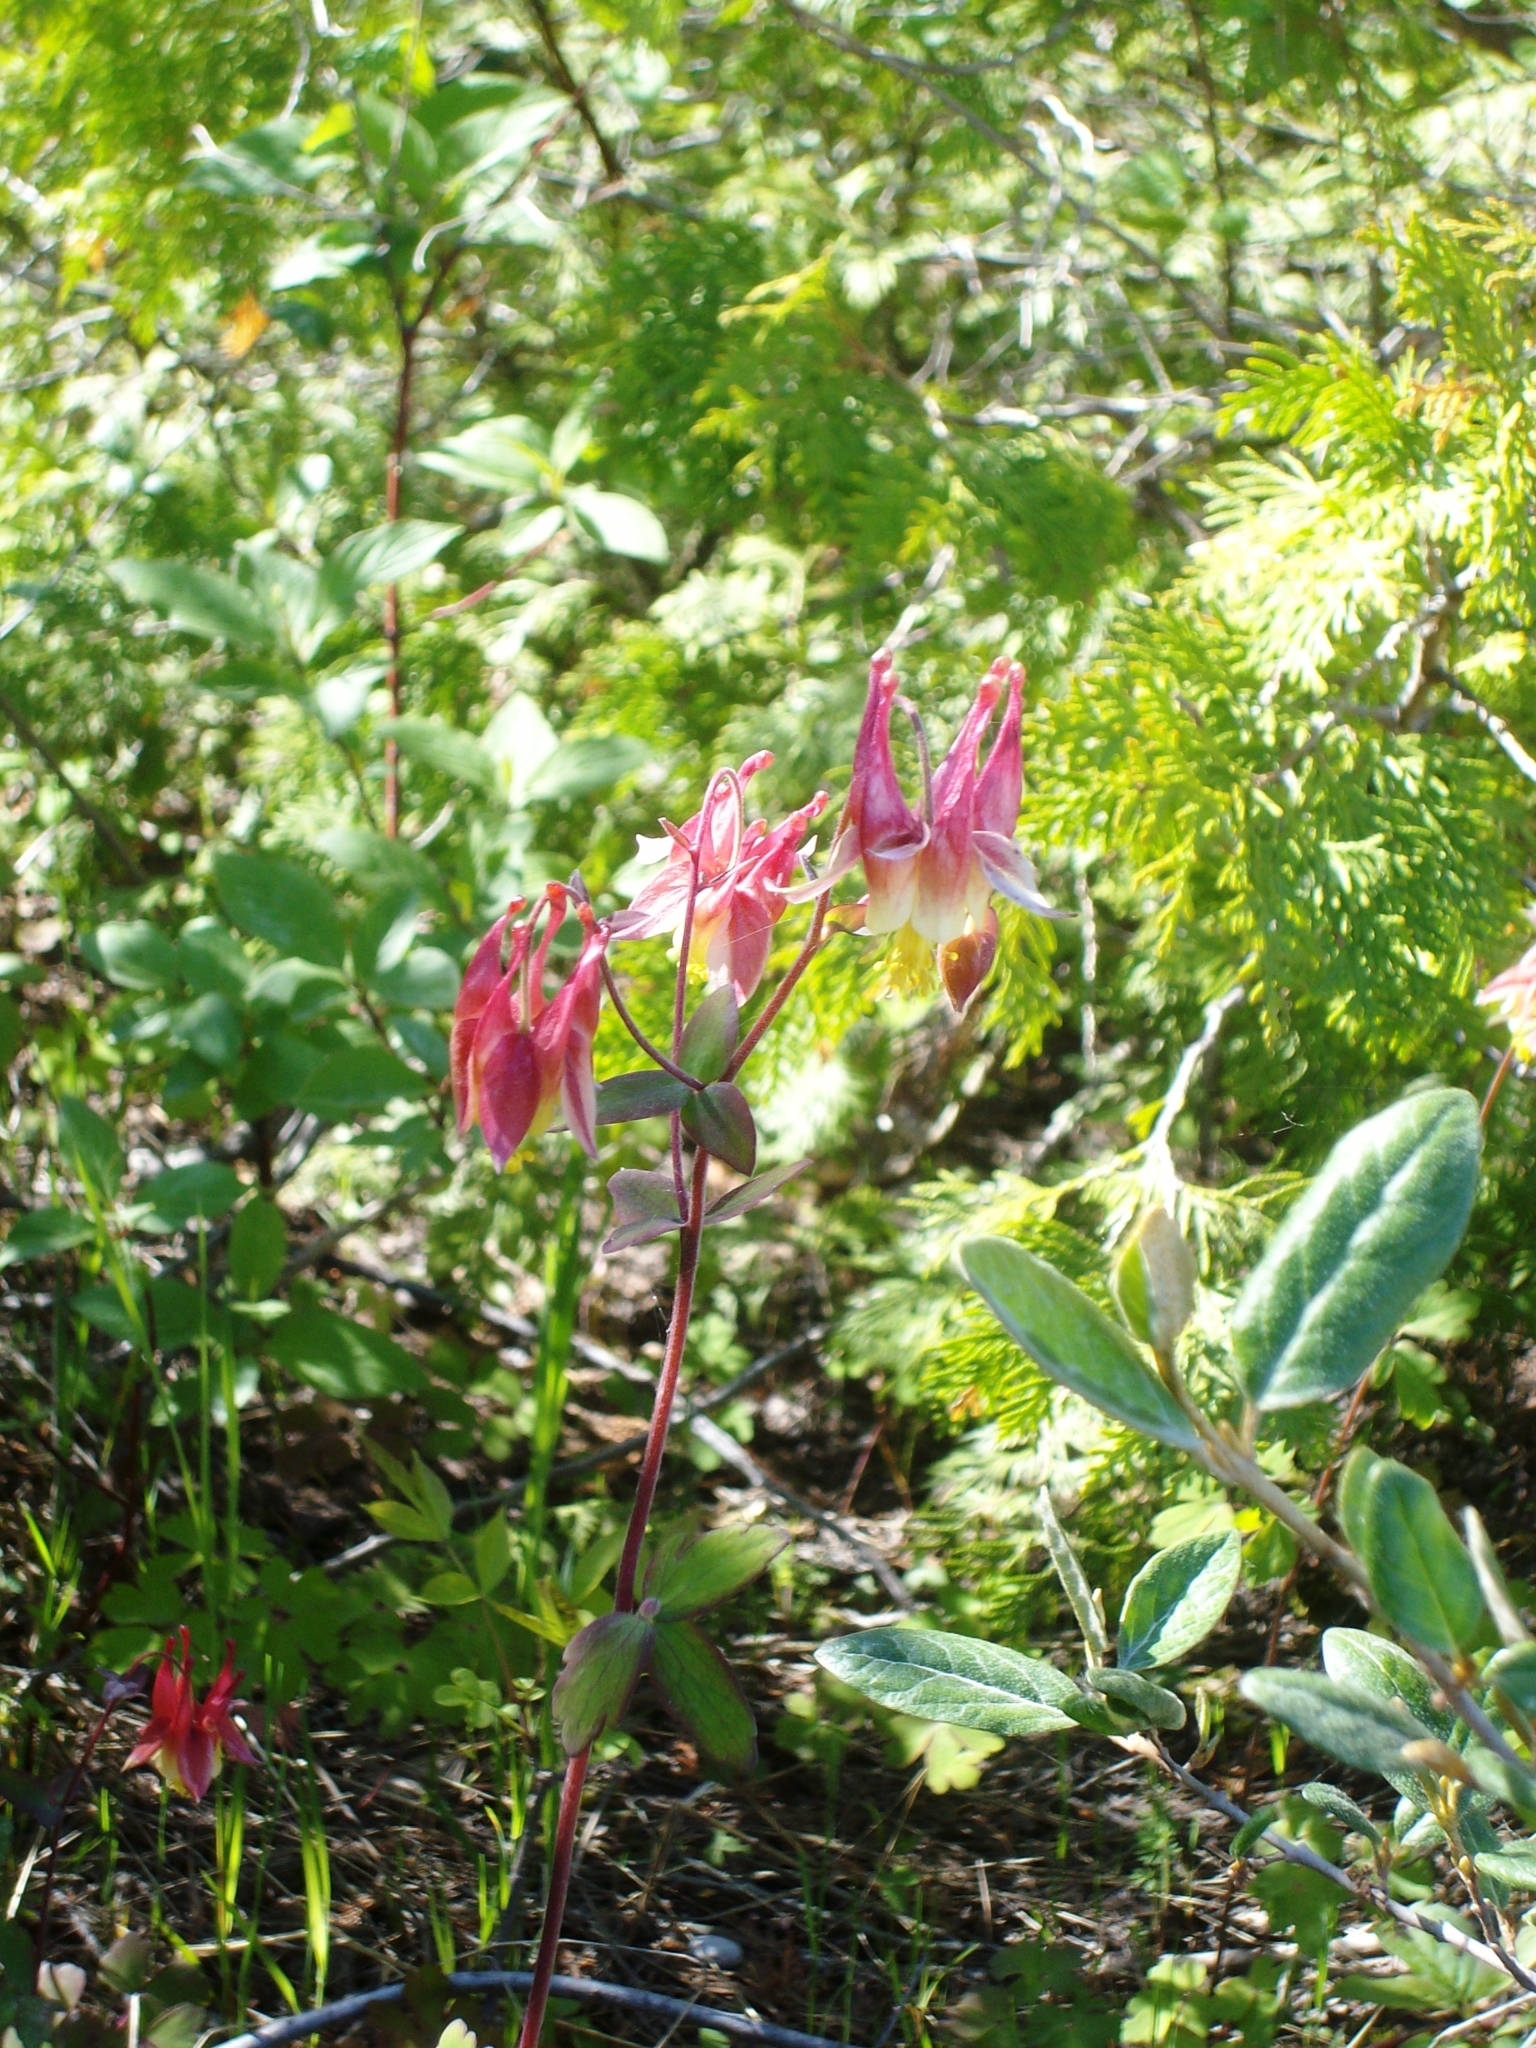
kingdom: Plantae
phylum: Tracheophyta
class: Magnoliopsida
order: Ranunculales
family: Ranunculaceae
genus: Aquilegia
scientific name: Aquilegia canadensis
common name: American columbine
